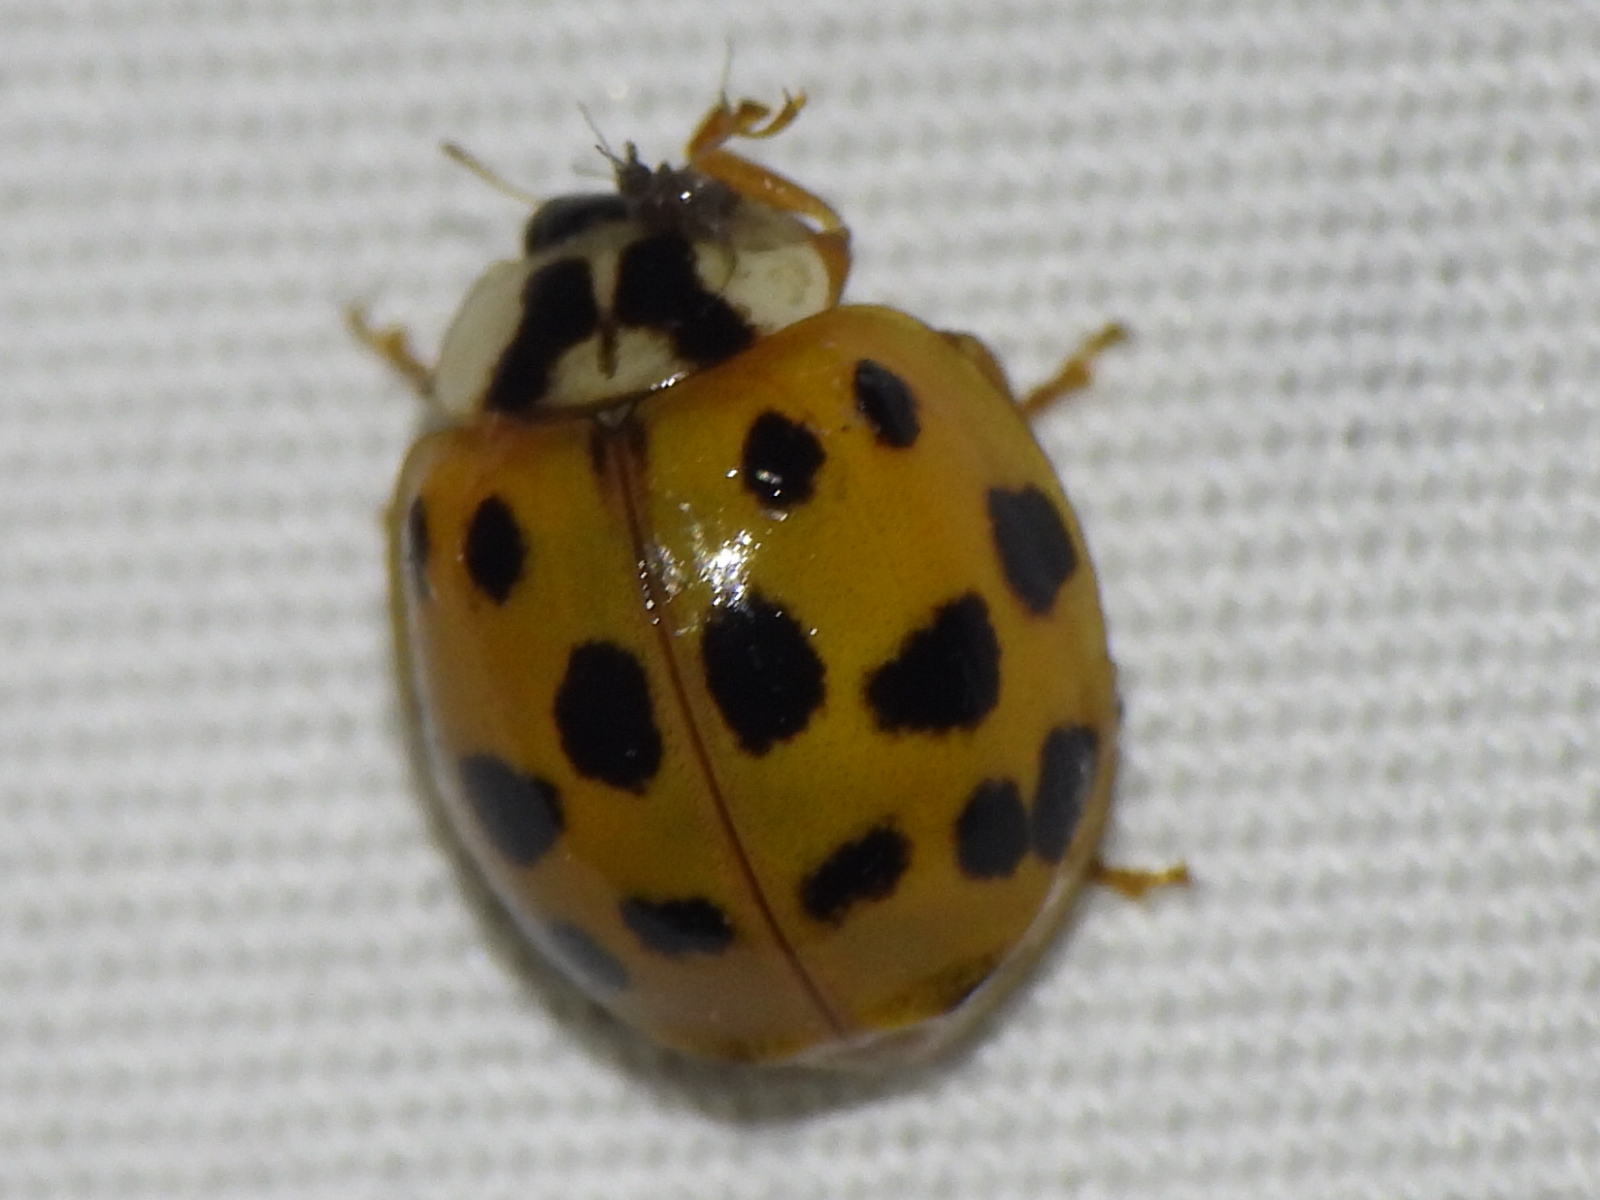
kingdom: Animalia
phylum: Arthropoda
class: Insecta
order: Coleoptera
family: Coccinellidae
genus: Harmonia
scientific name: Harmonia axyridis
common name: Harlequin ladybird
